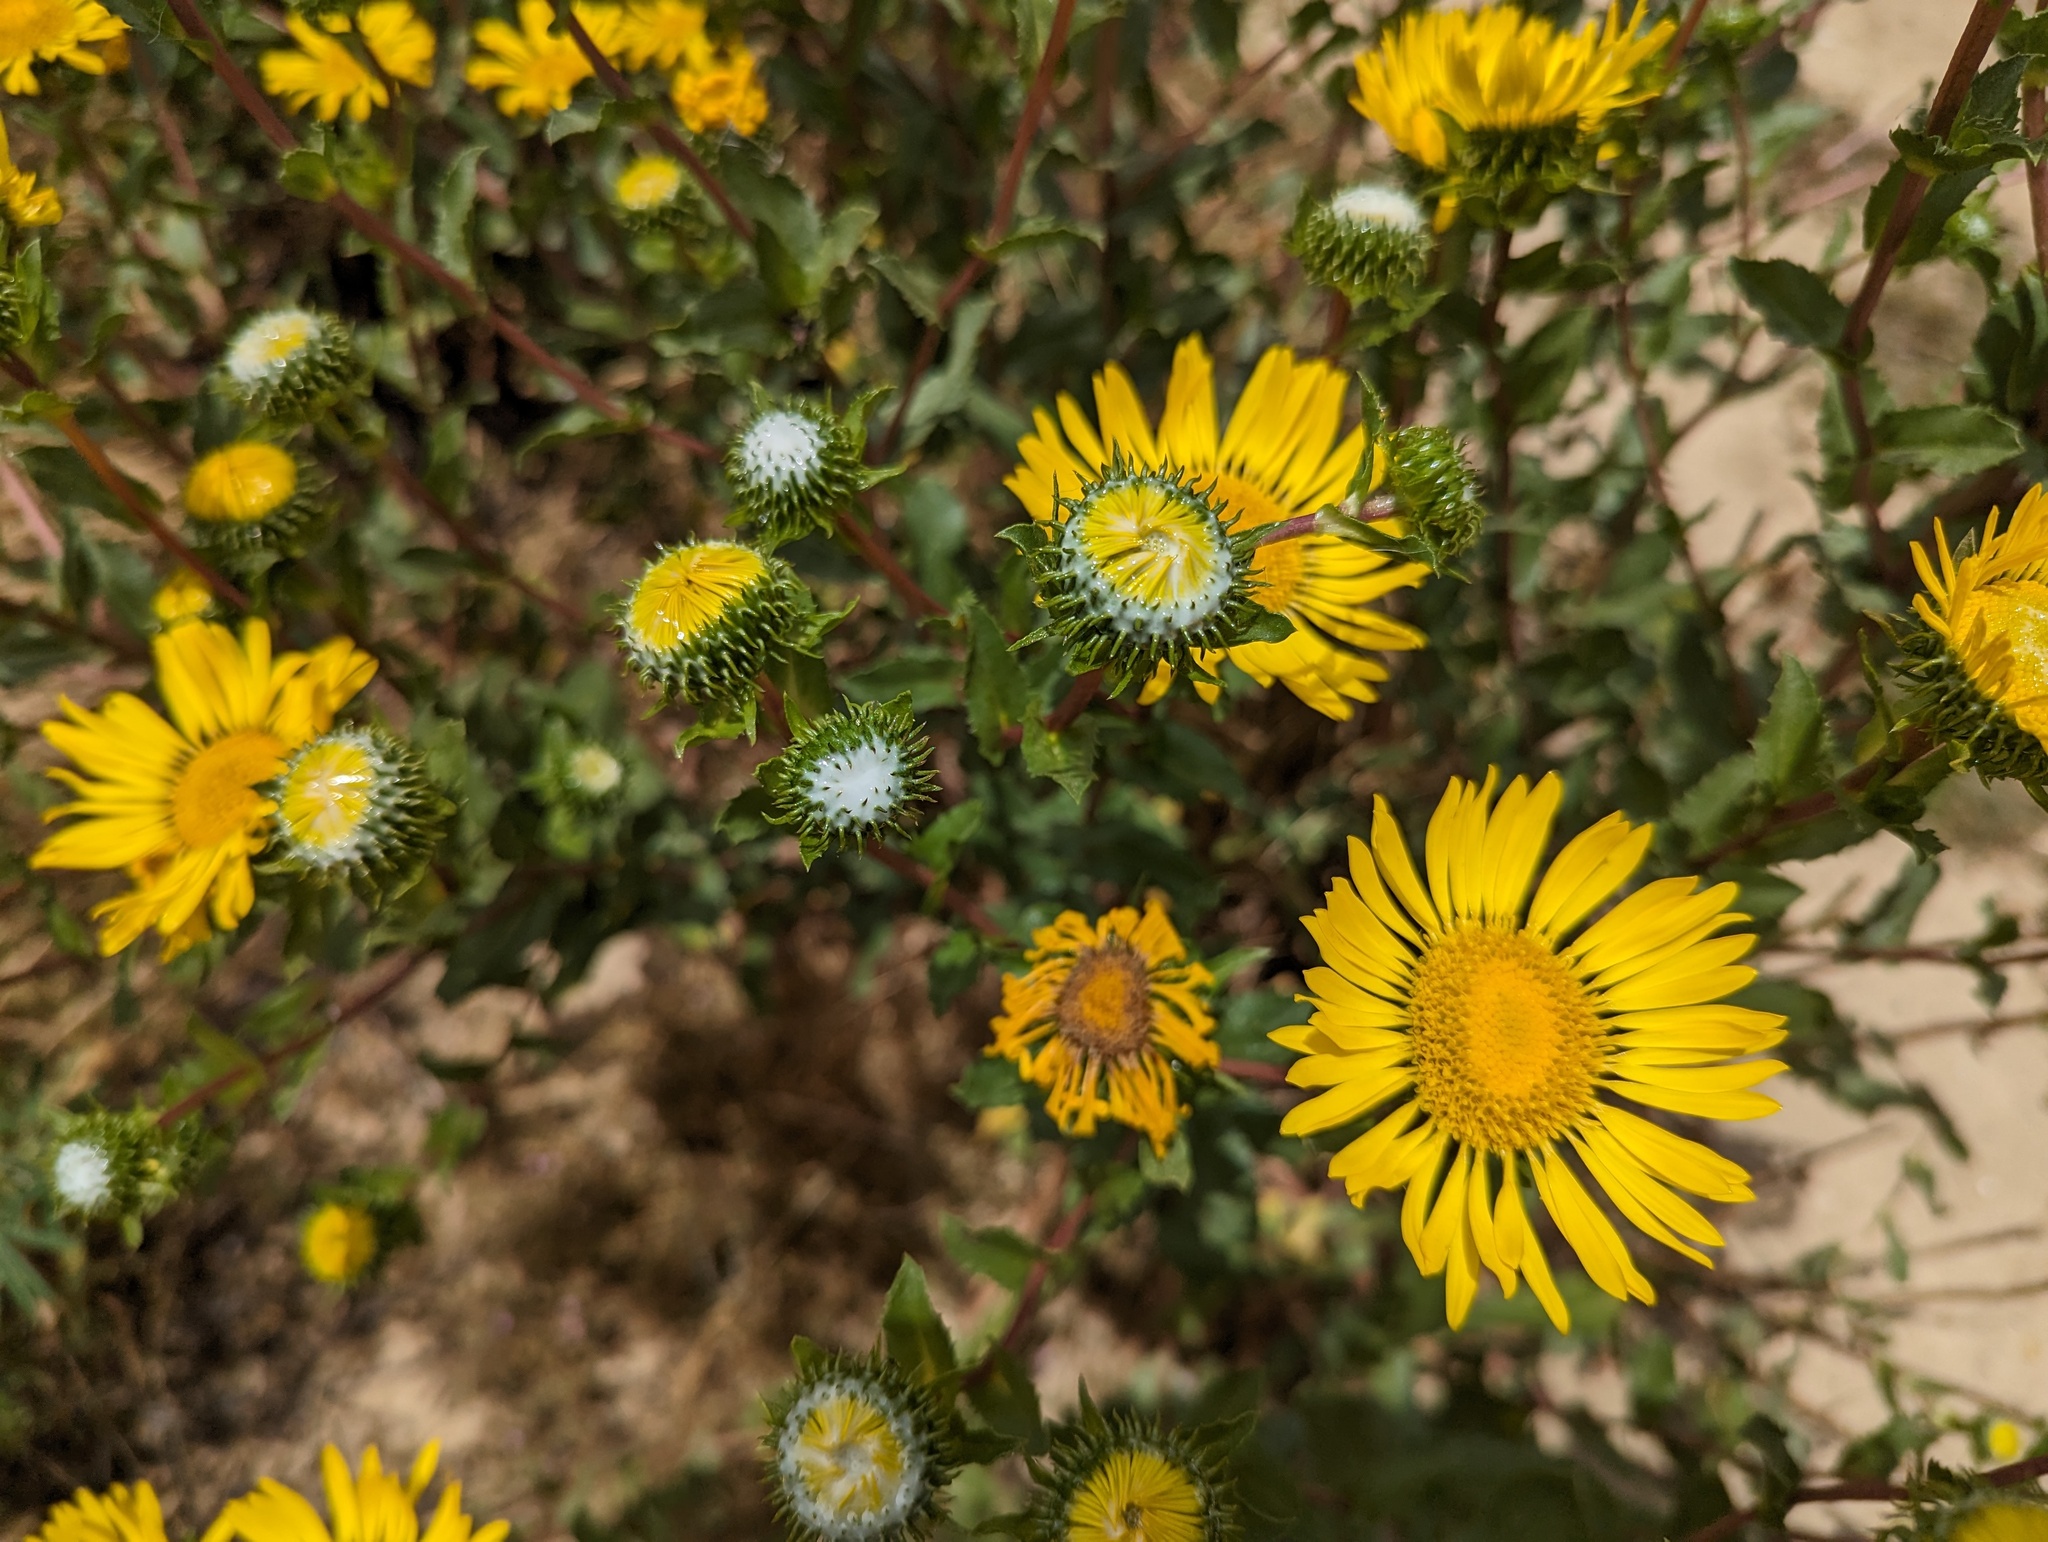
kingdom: Plantae
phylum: Tracheophyta
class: Magnoliopsida
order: Asterales
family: Asteraceae
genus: Grindelia
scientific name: Grindelia hirsutula
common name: Hairy gumweed
